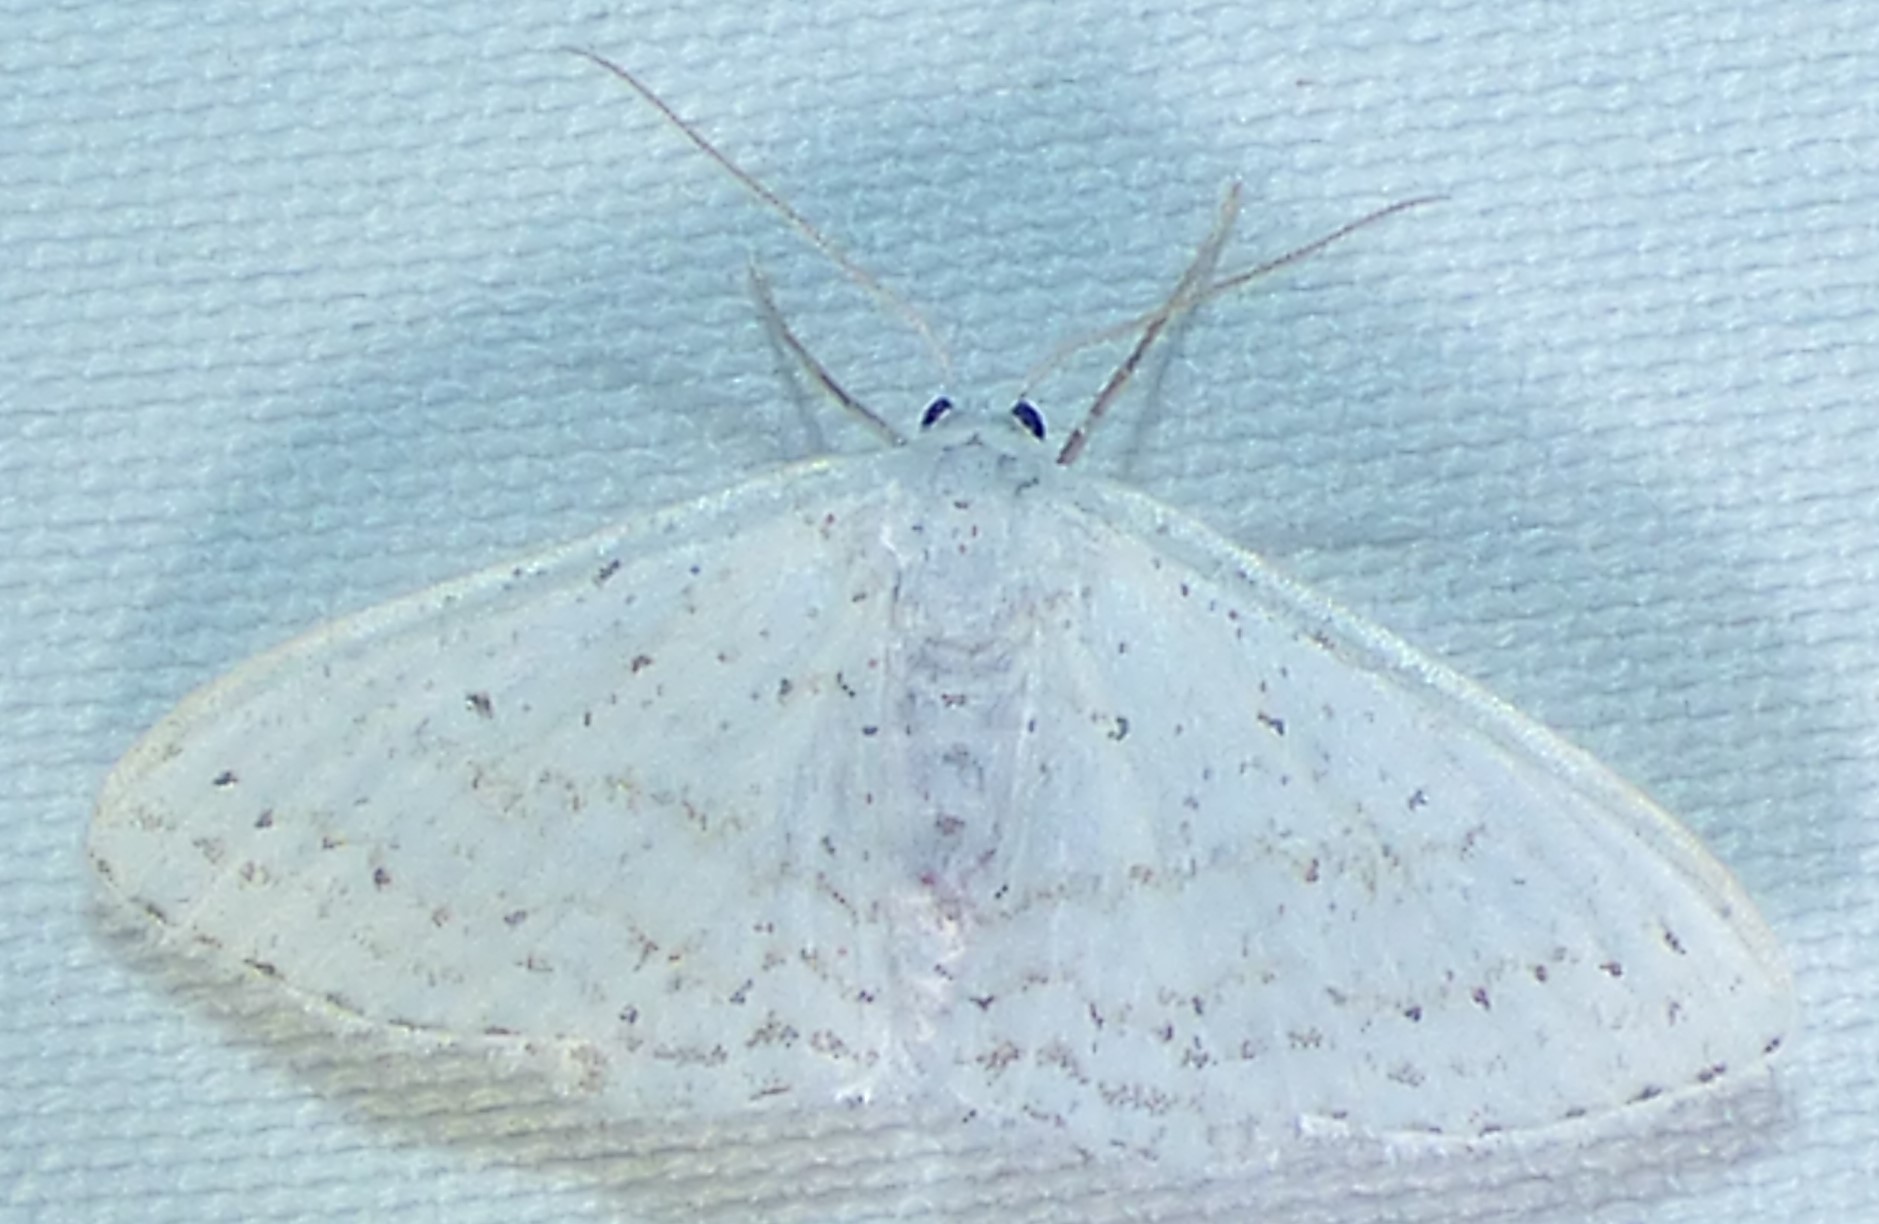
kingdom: Animalia
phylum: Arthropoda
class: Insecta
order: Lepidoptera
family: Geometridae
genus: Idaea
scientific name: Idaea tacturata
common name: Dot-lined wave
